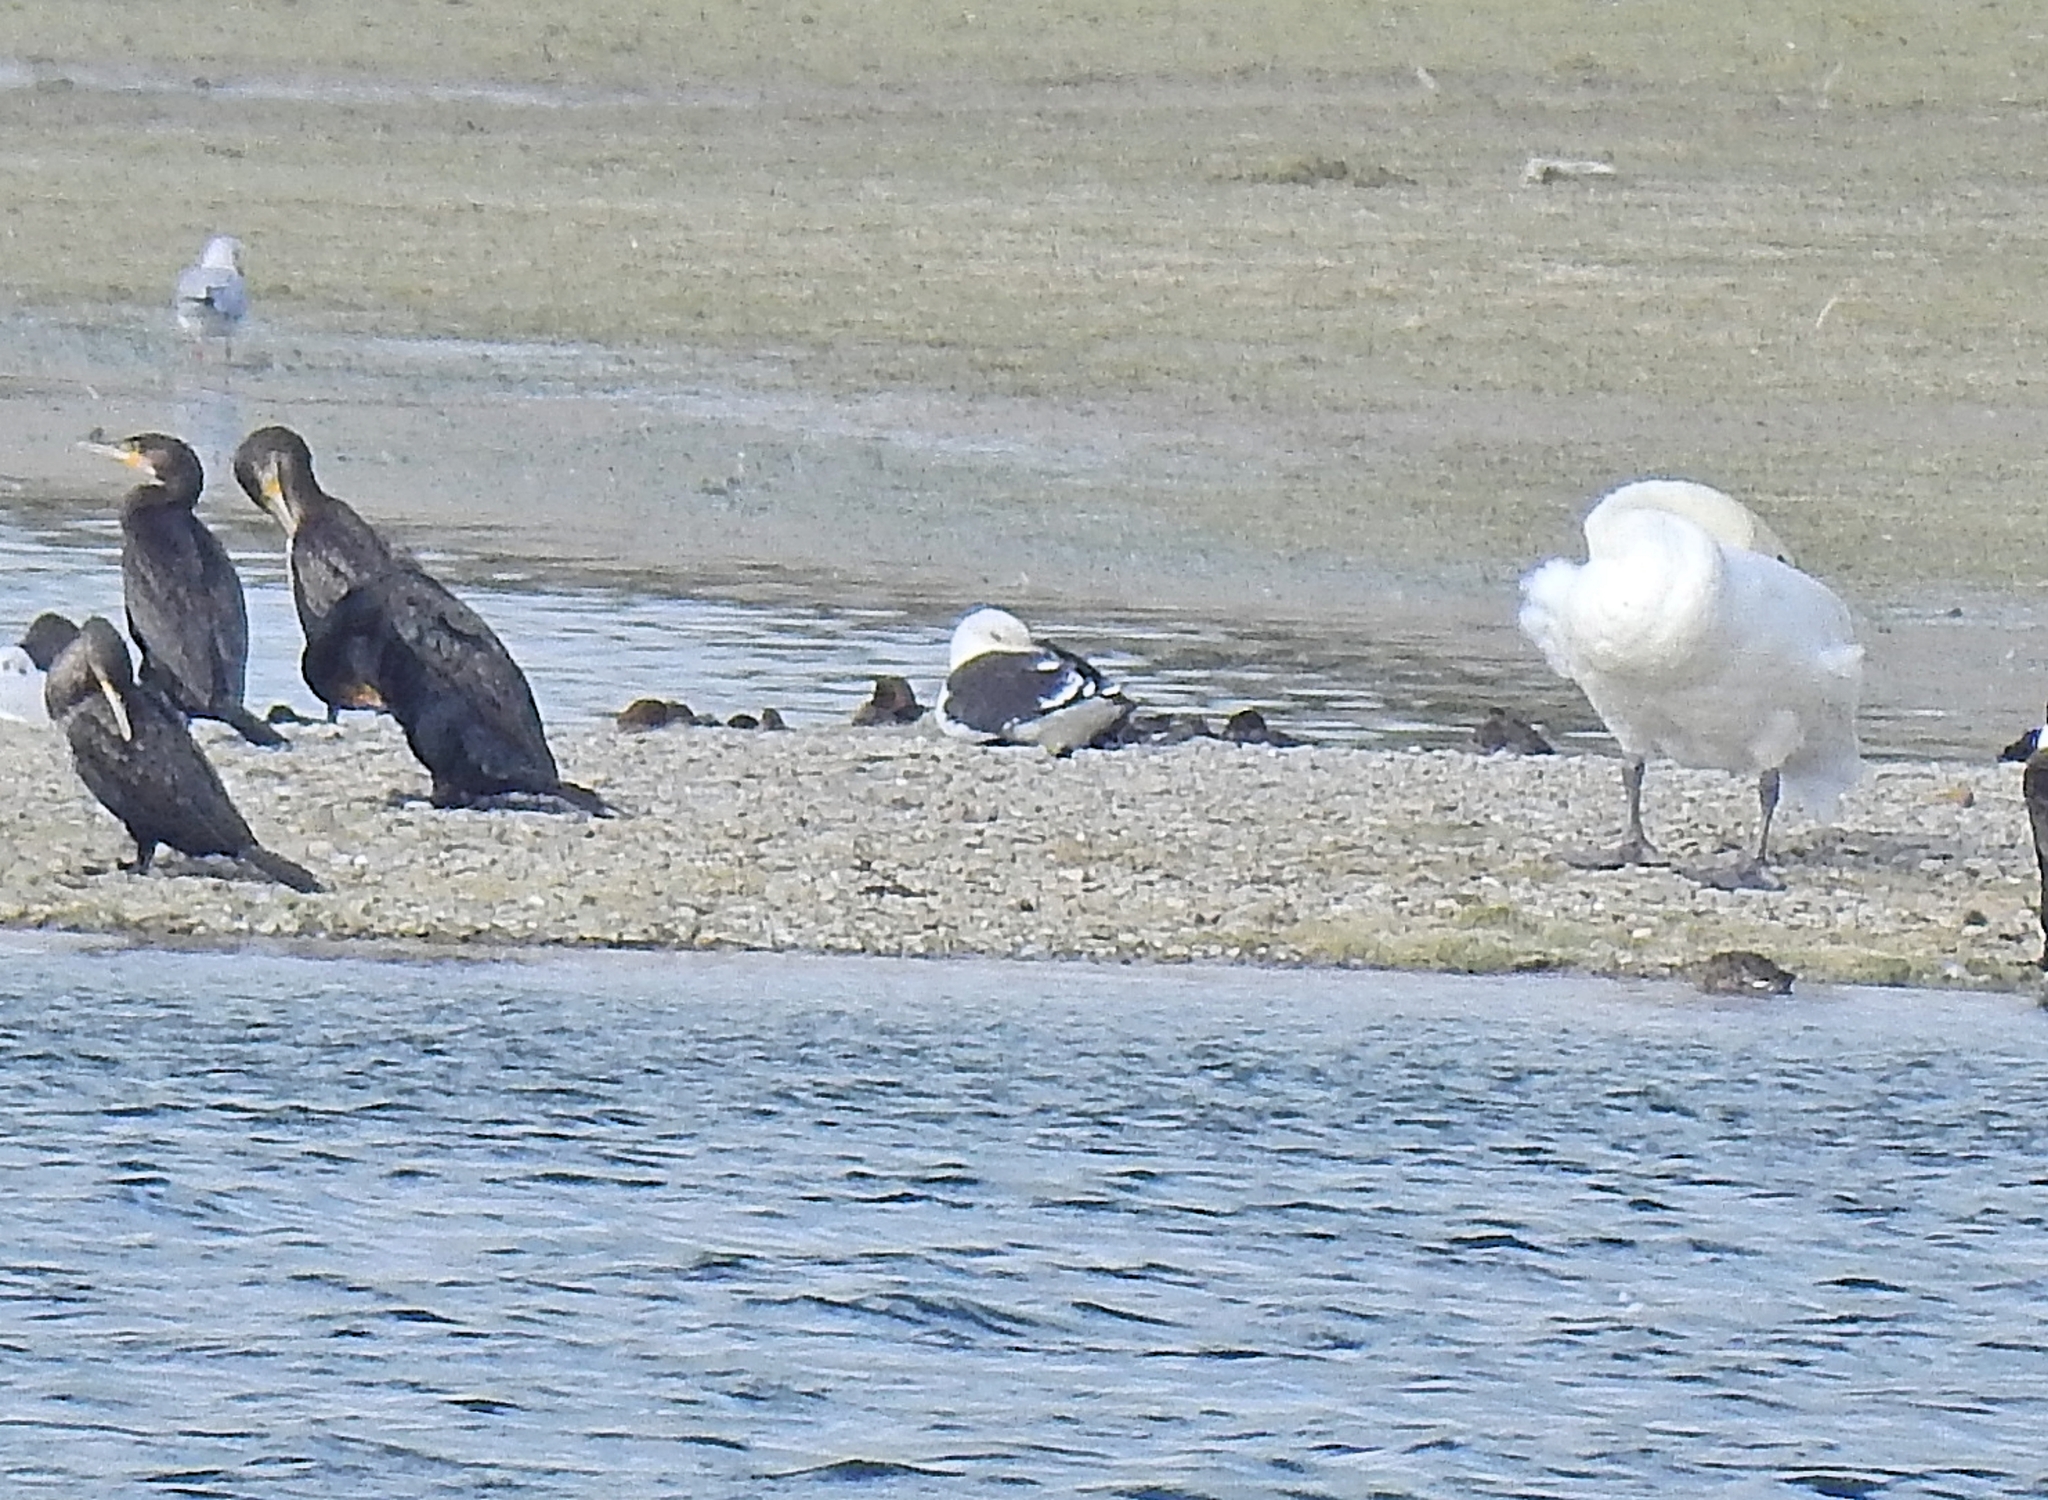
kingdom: Animalia
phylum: Chordata
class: Aves
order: Charadriiformes
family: Laridae
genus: Larus
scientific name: Larus fuscus
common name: Lesser black-backed gull
